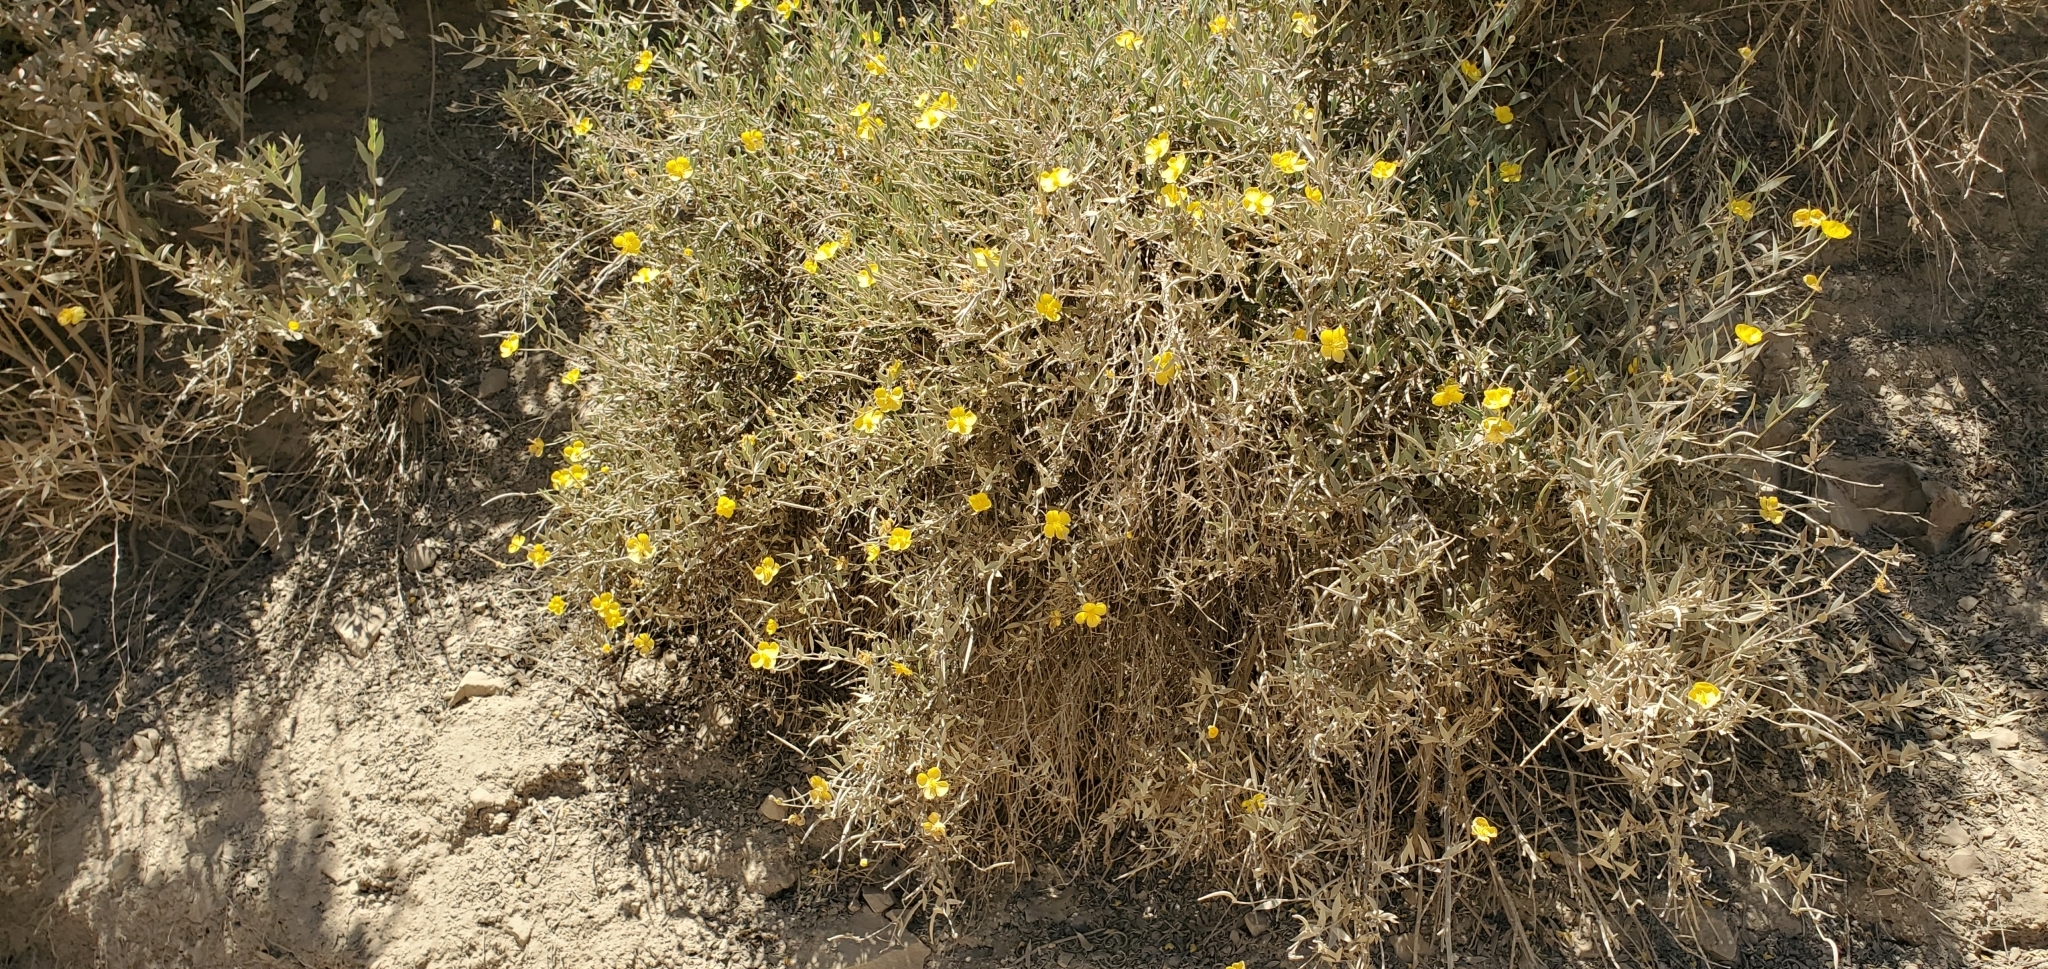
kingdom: Plantae
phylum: Tracheophyta
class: Magnoliopsida
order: Ranunculales
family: Papaveraceae
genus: Dendromecon
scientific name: Dendromecon rigida
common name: Tree poppy
